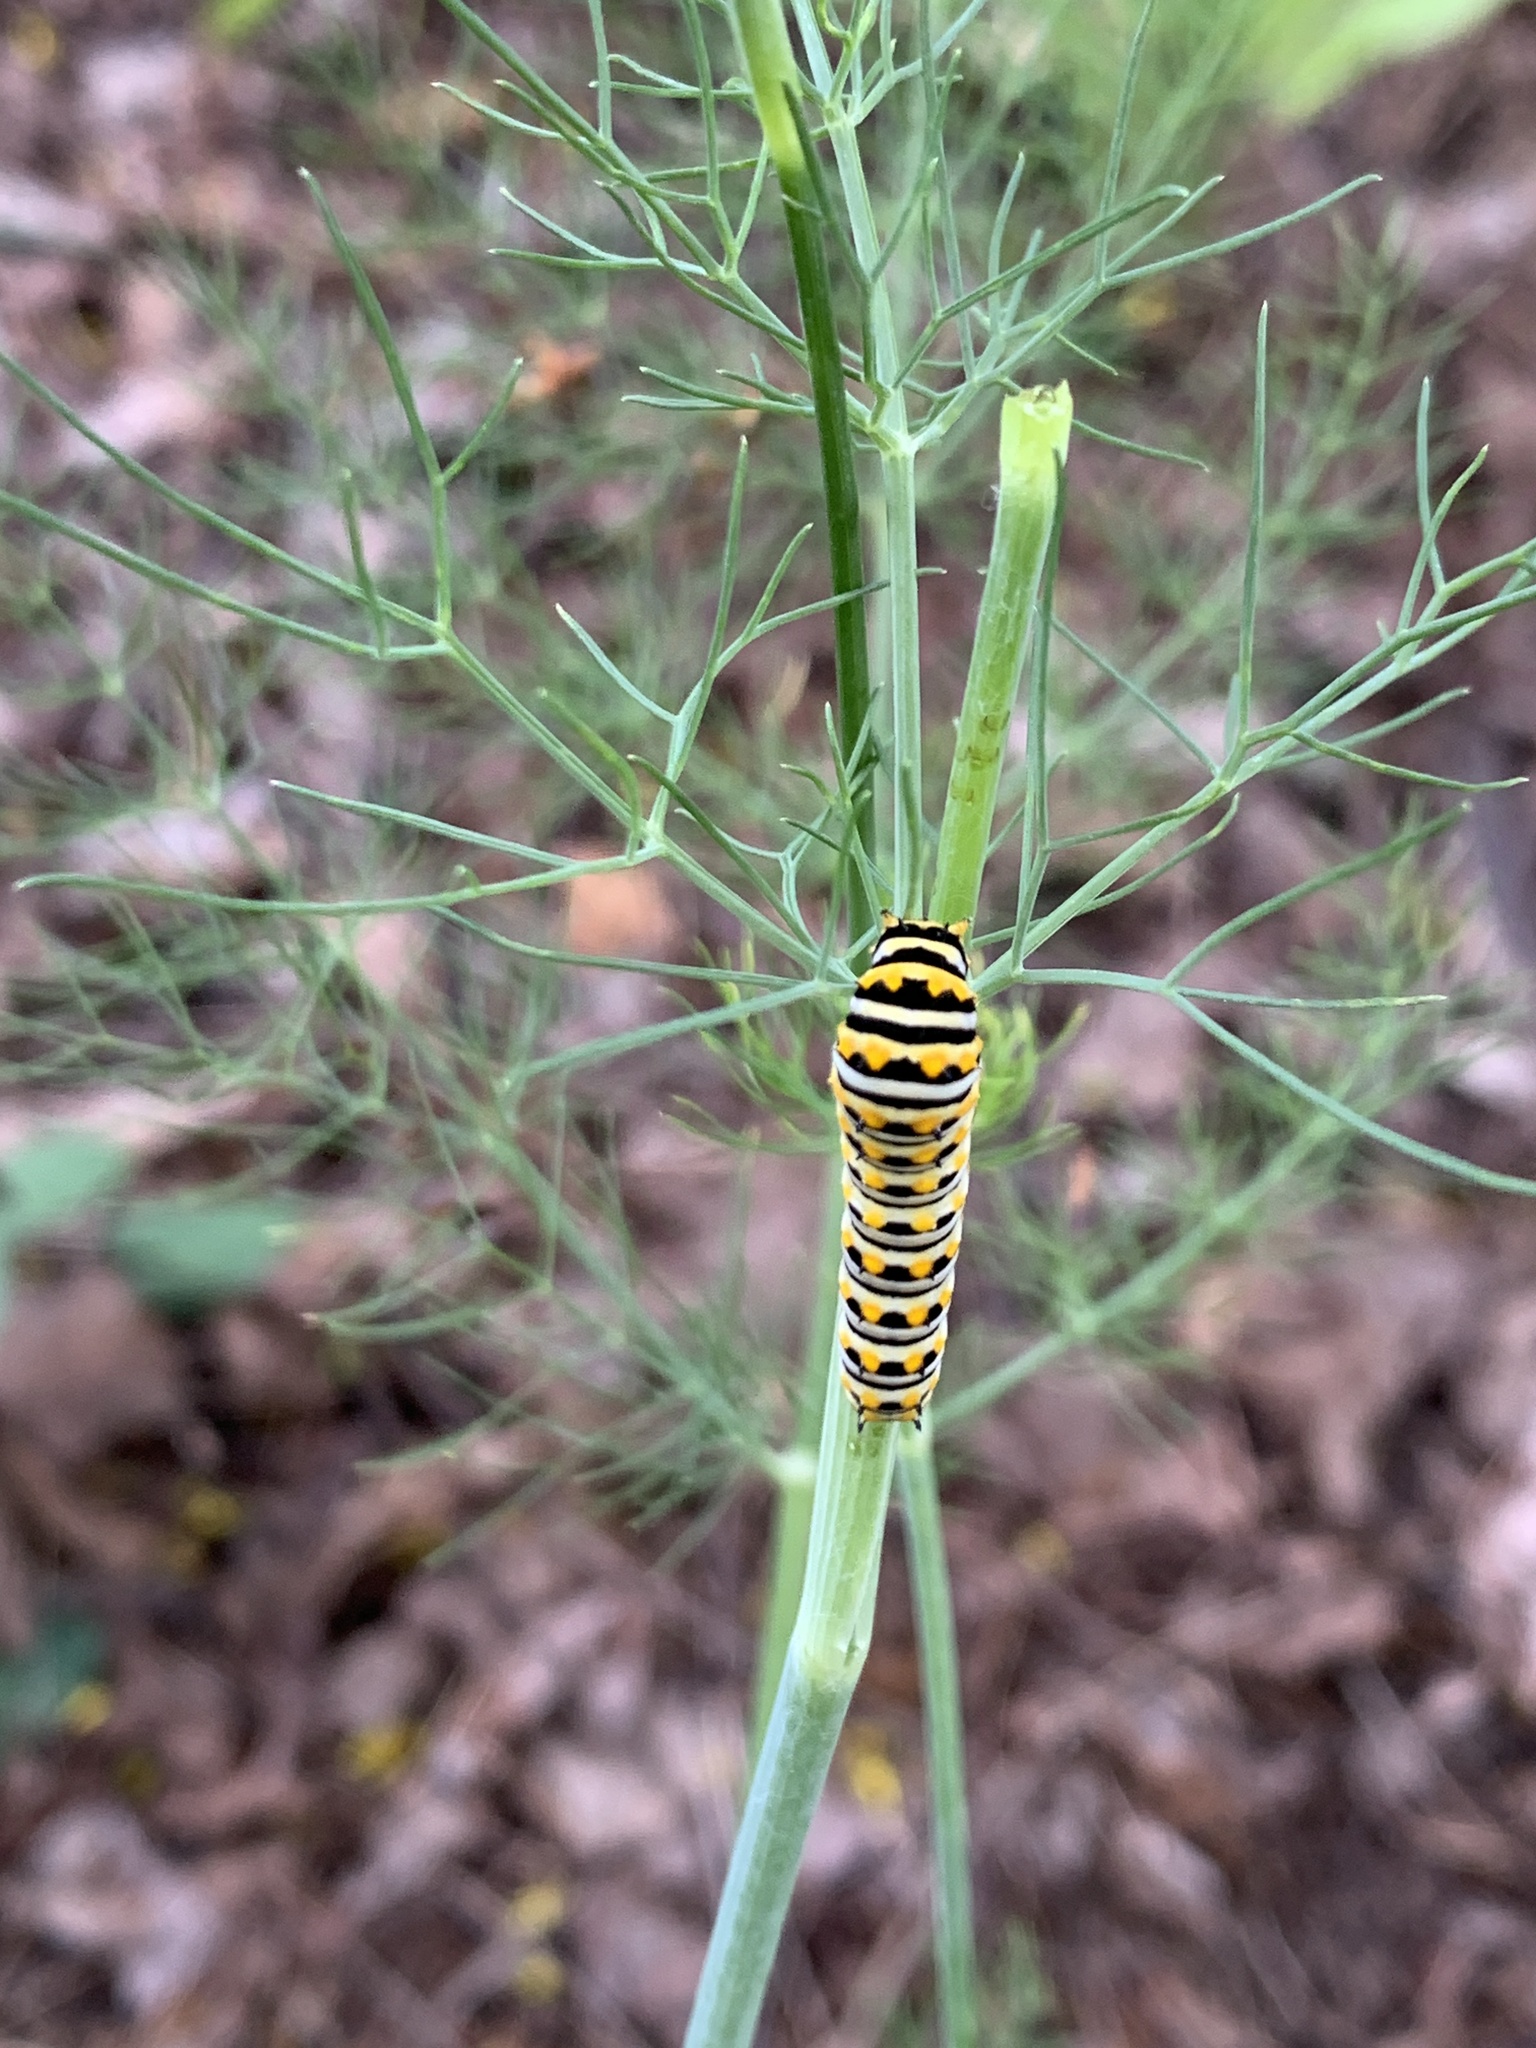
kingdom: Animalia
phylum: Arthropoda
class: Insecta
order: Lepidoptera
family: Papilionidae
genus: Papilio
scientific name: Papilio polyxenes
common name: Black swallowtail
